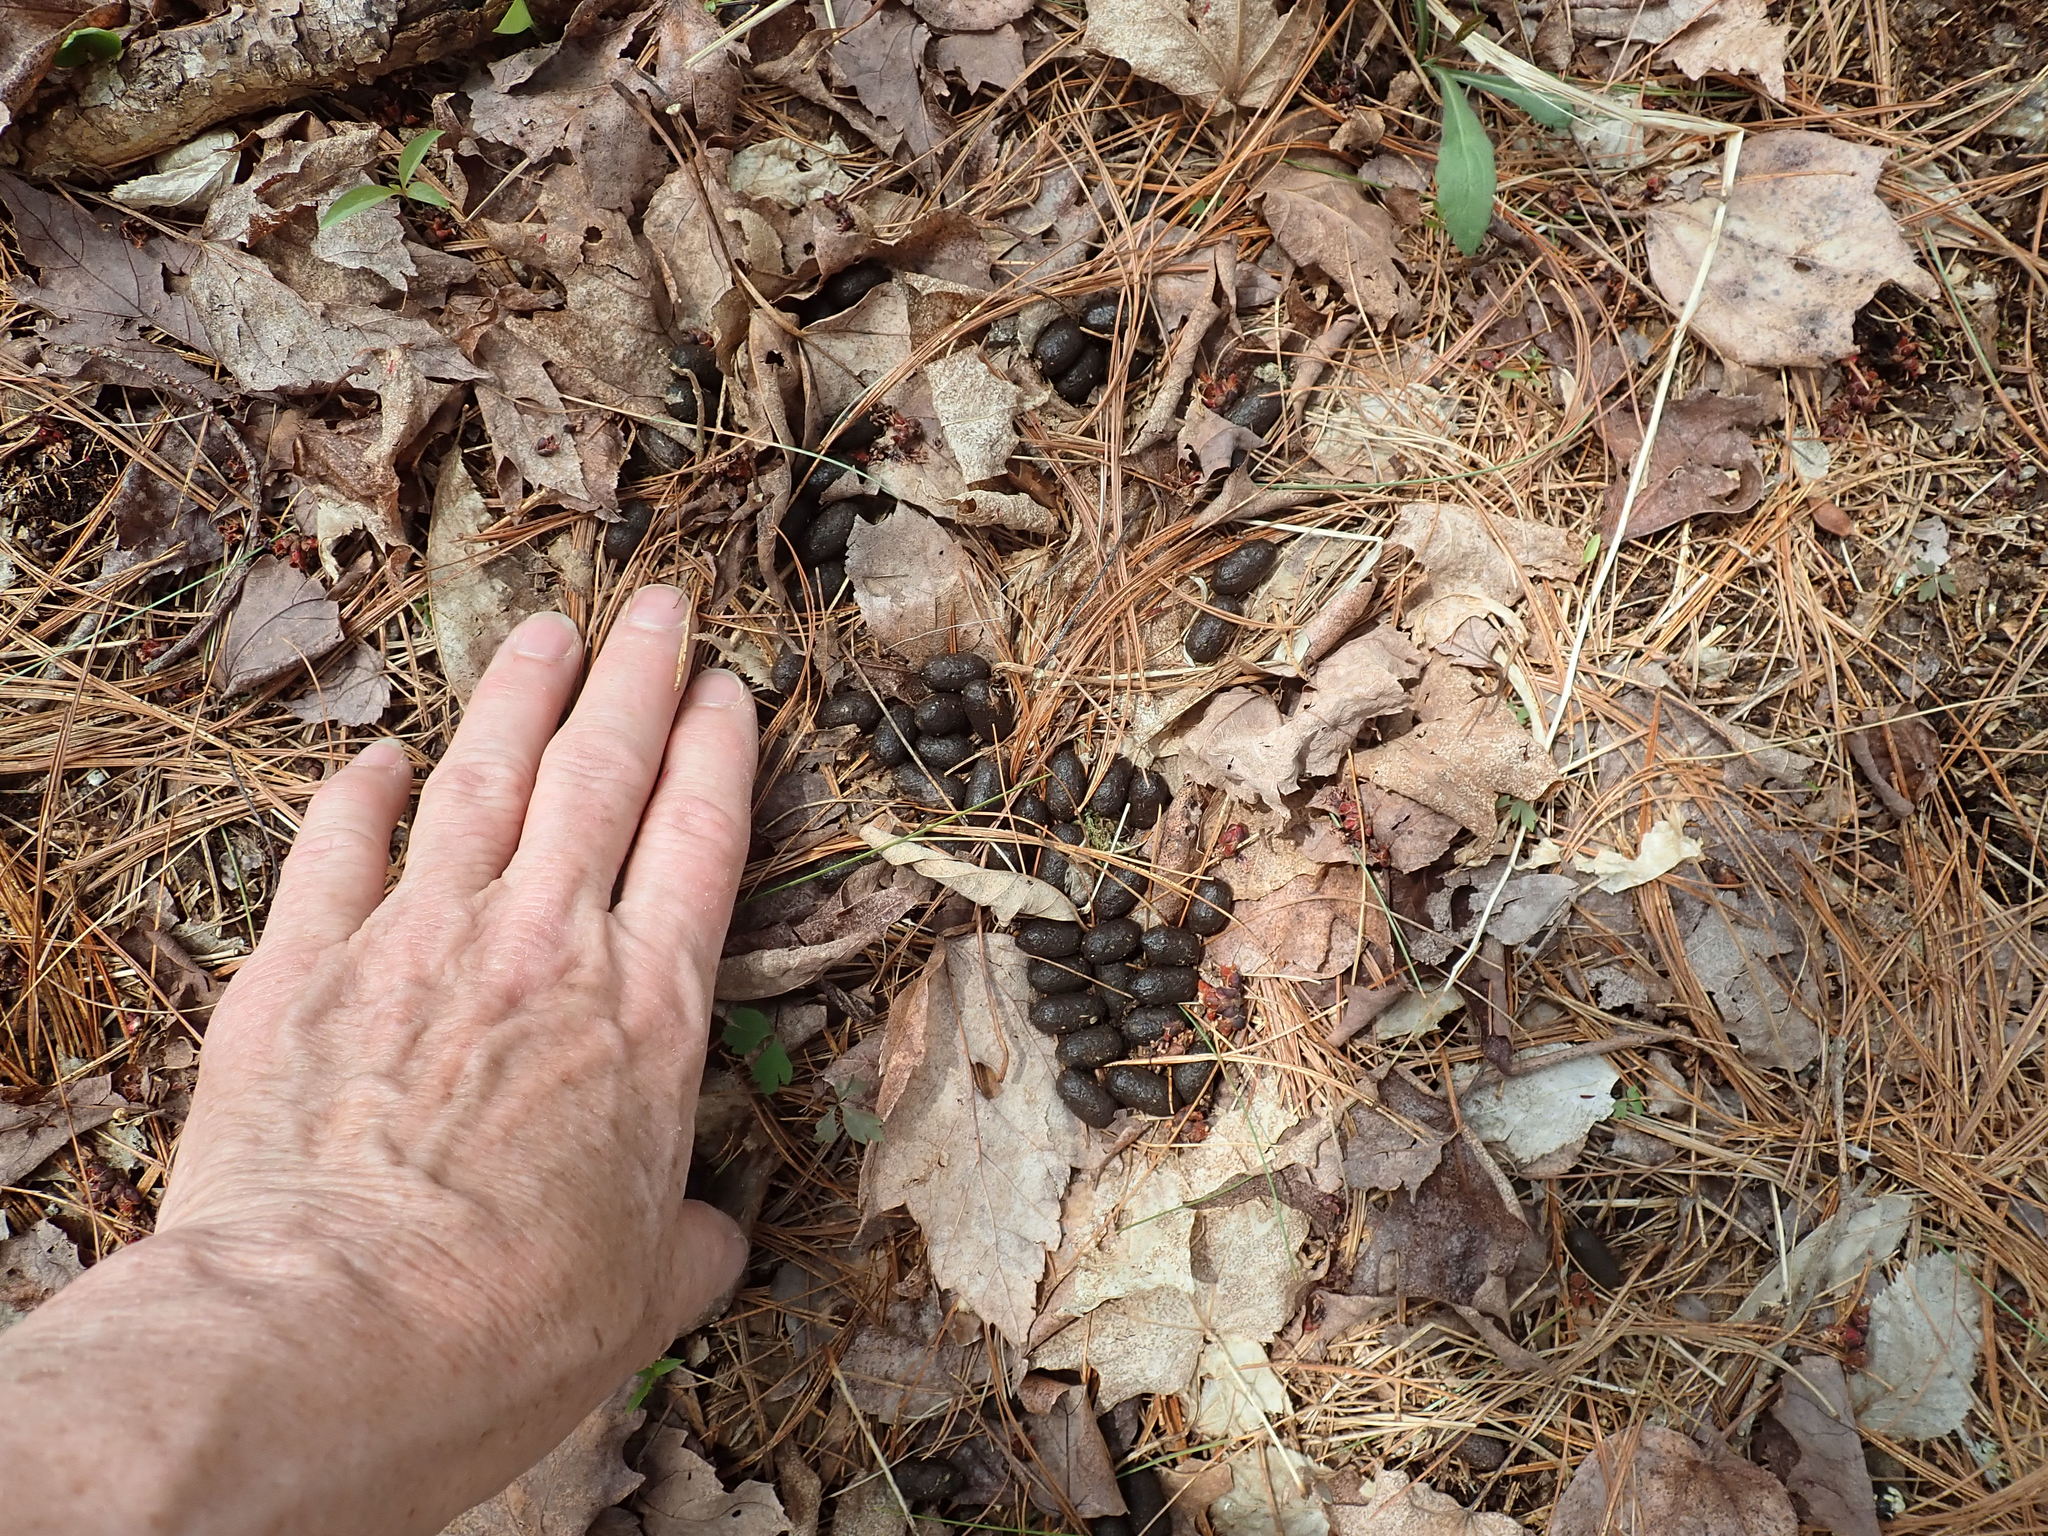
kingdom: Animalia
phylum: Chordata
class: Mammalia
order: Artiodactyla
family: Cervidae
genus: Odocoileus
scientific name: Odocoileus virginianus
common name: White-tailed deer
